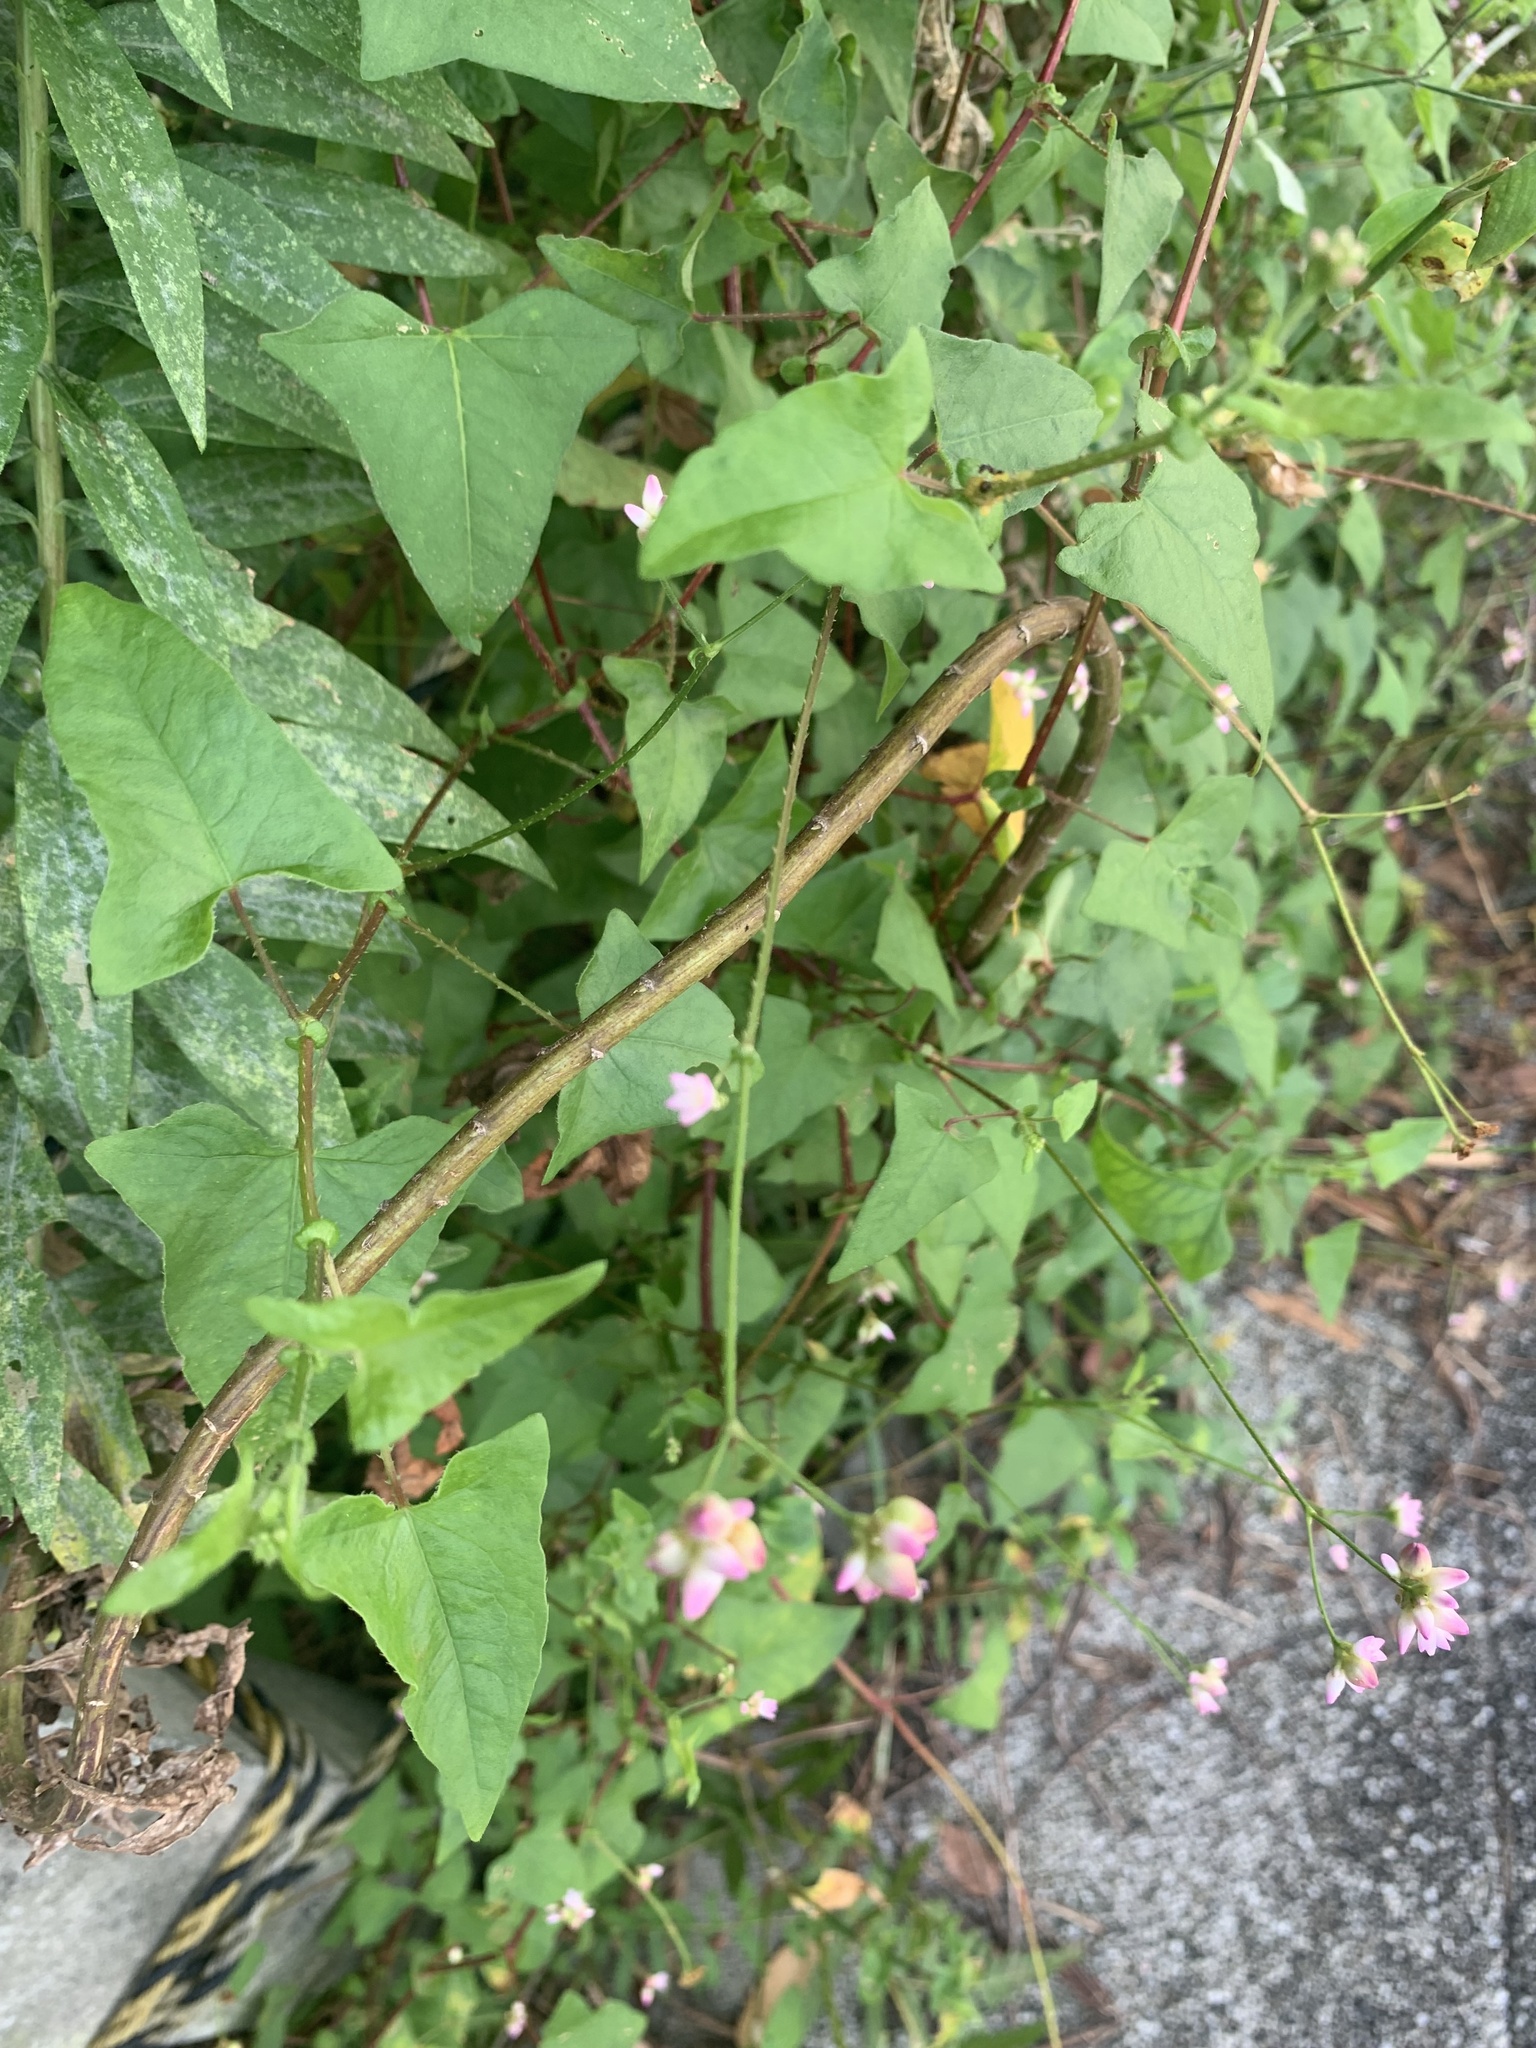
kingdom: Plantae
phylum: Tracheophyta
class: Magnoliopsida
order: Caryophyllales
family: Polygonaceae
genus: Persicaria
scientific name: Persicaria senticosa
